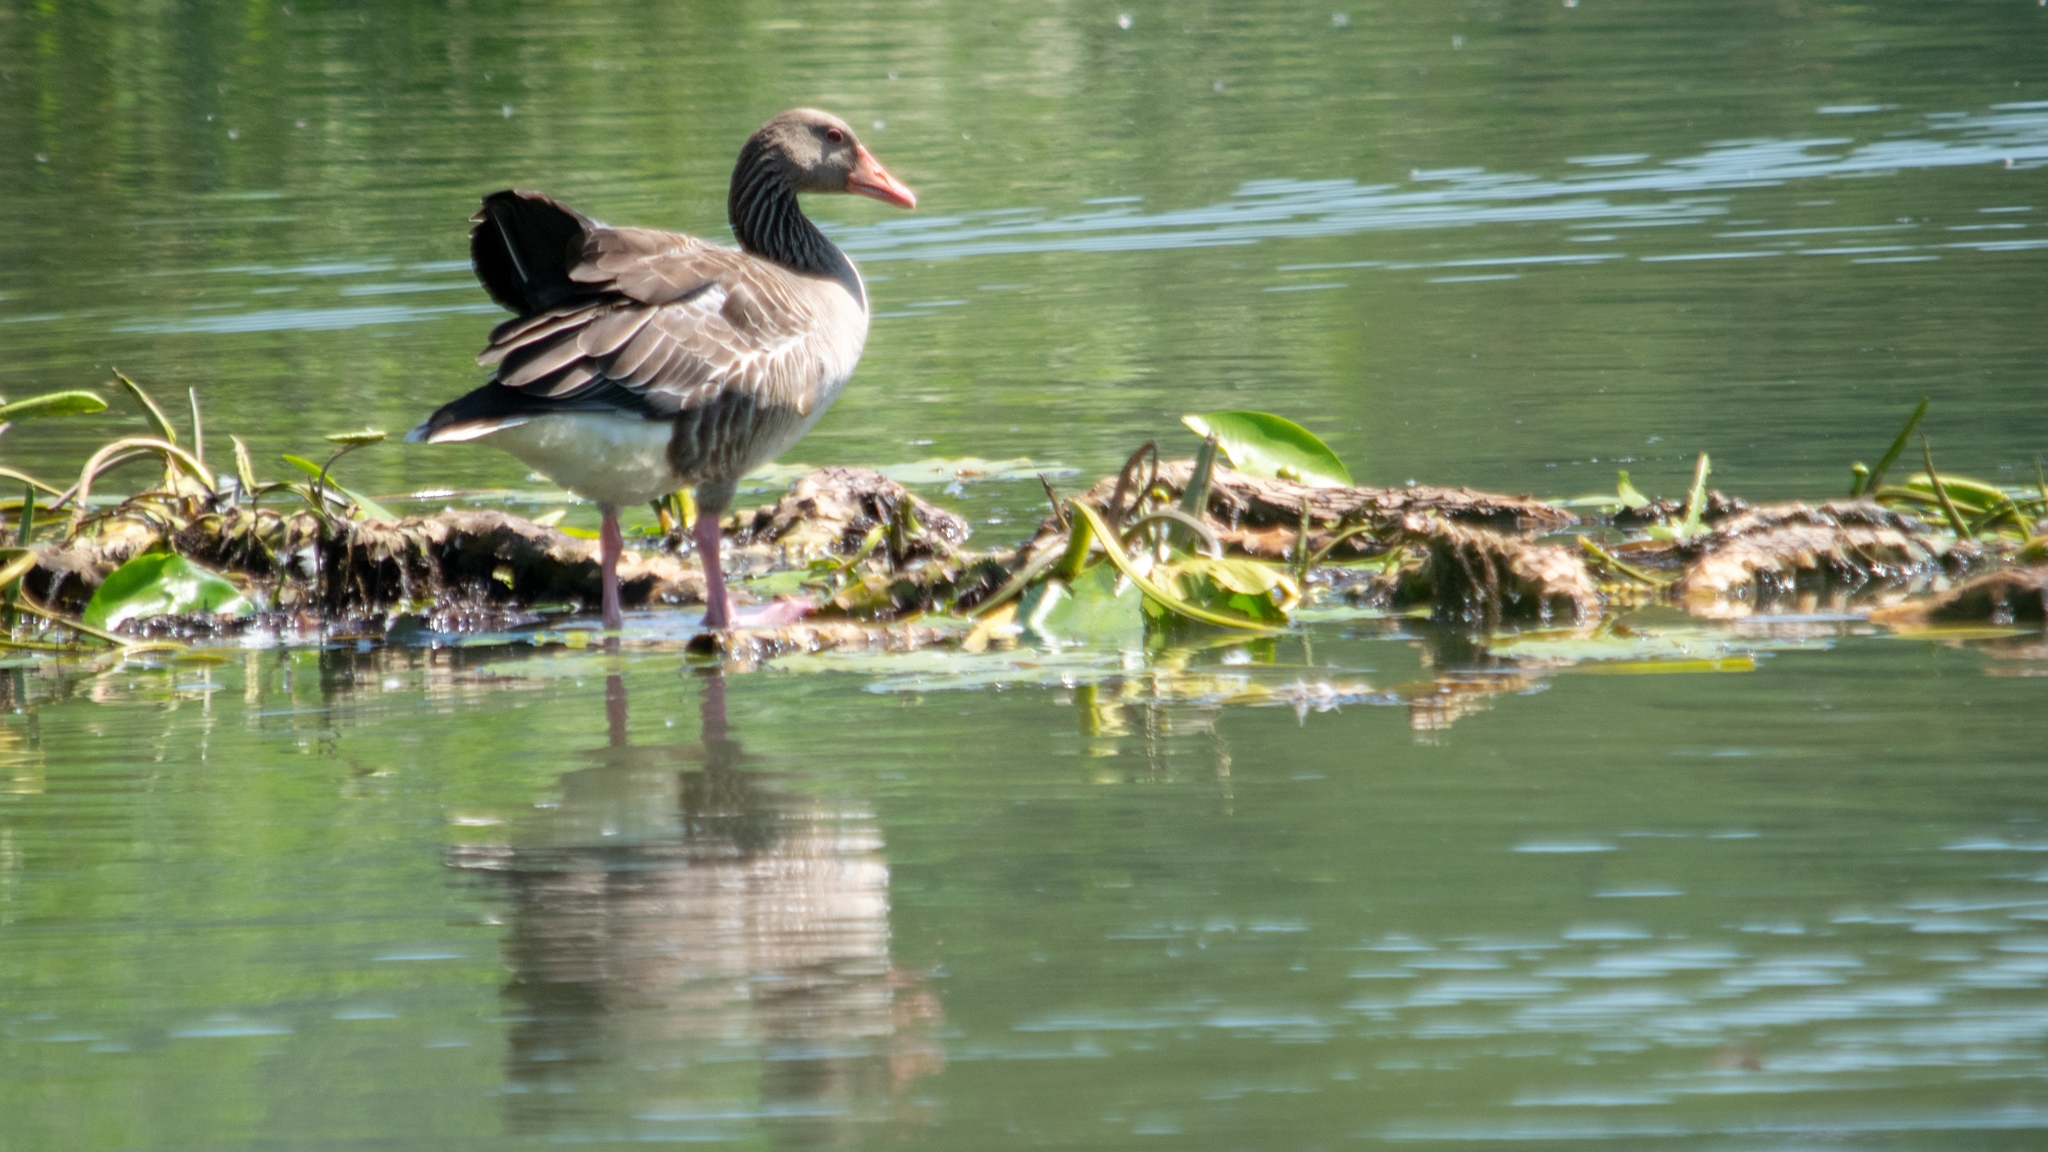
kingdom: Animalia
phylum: Chordata
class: Aves
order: Anseriformes
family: Anatidae
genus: Anser
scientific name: Anser anser
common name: Greylag goose
